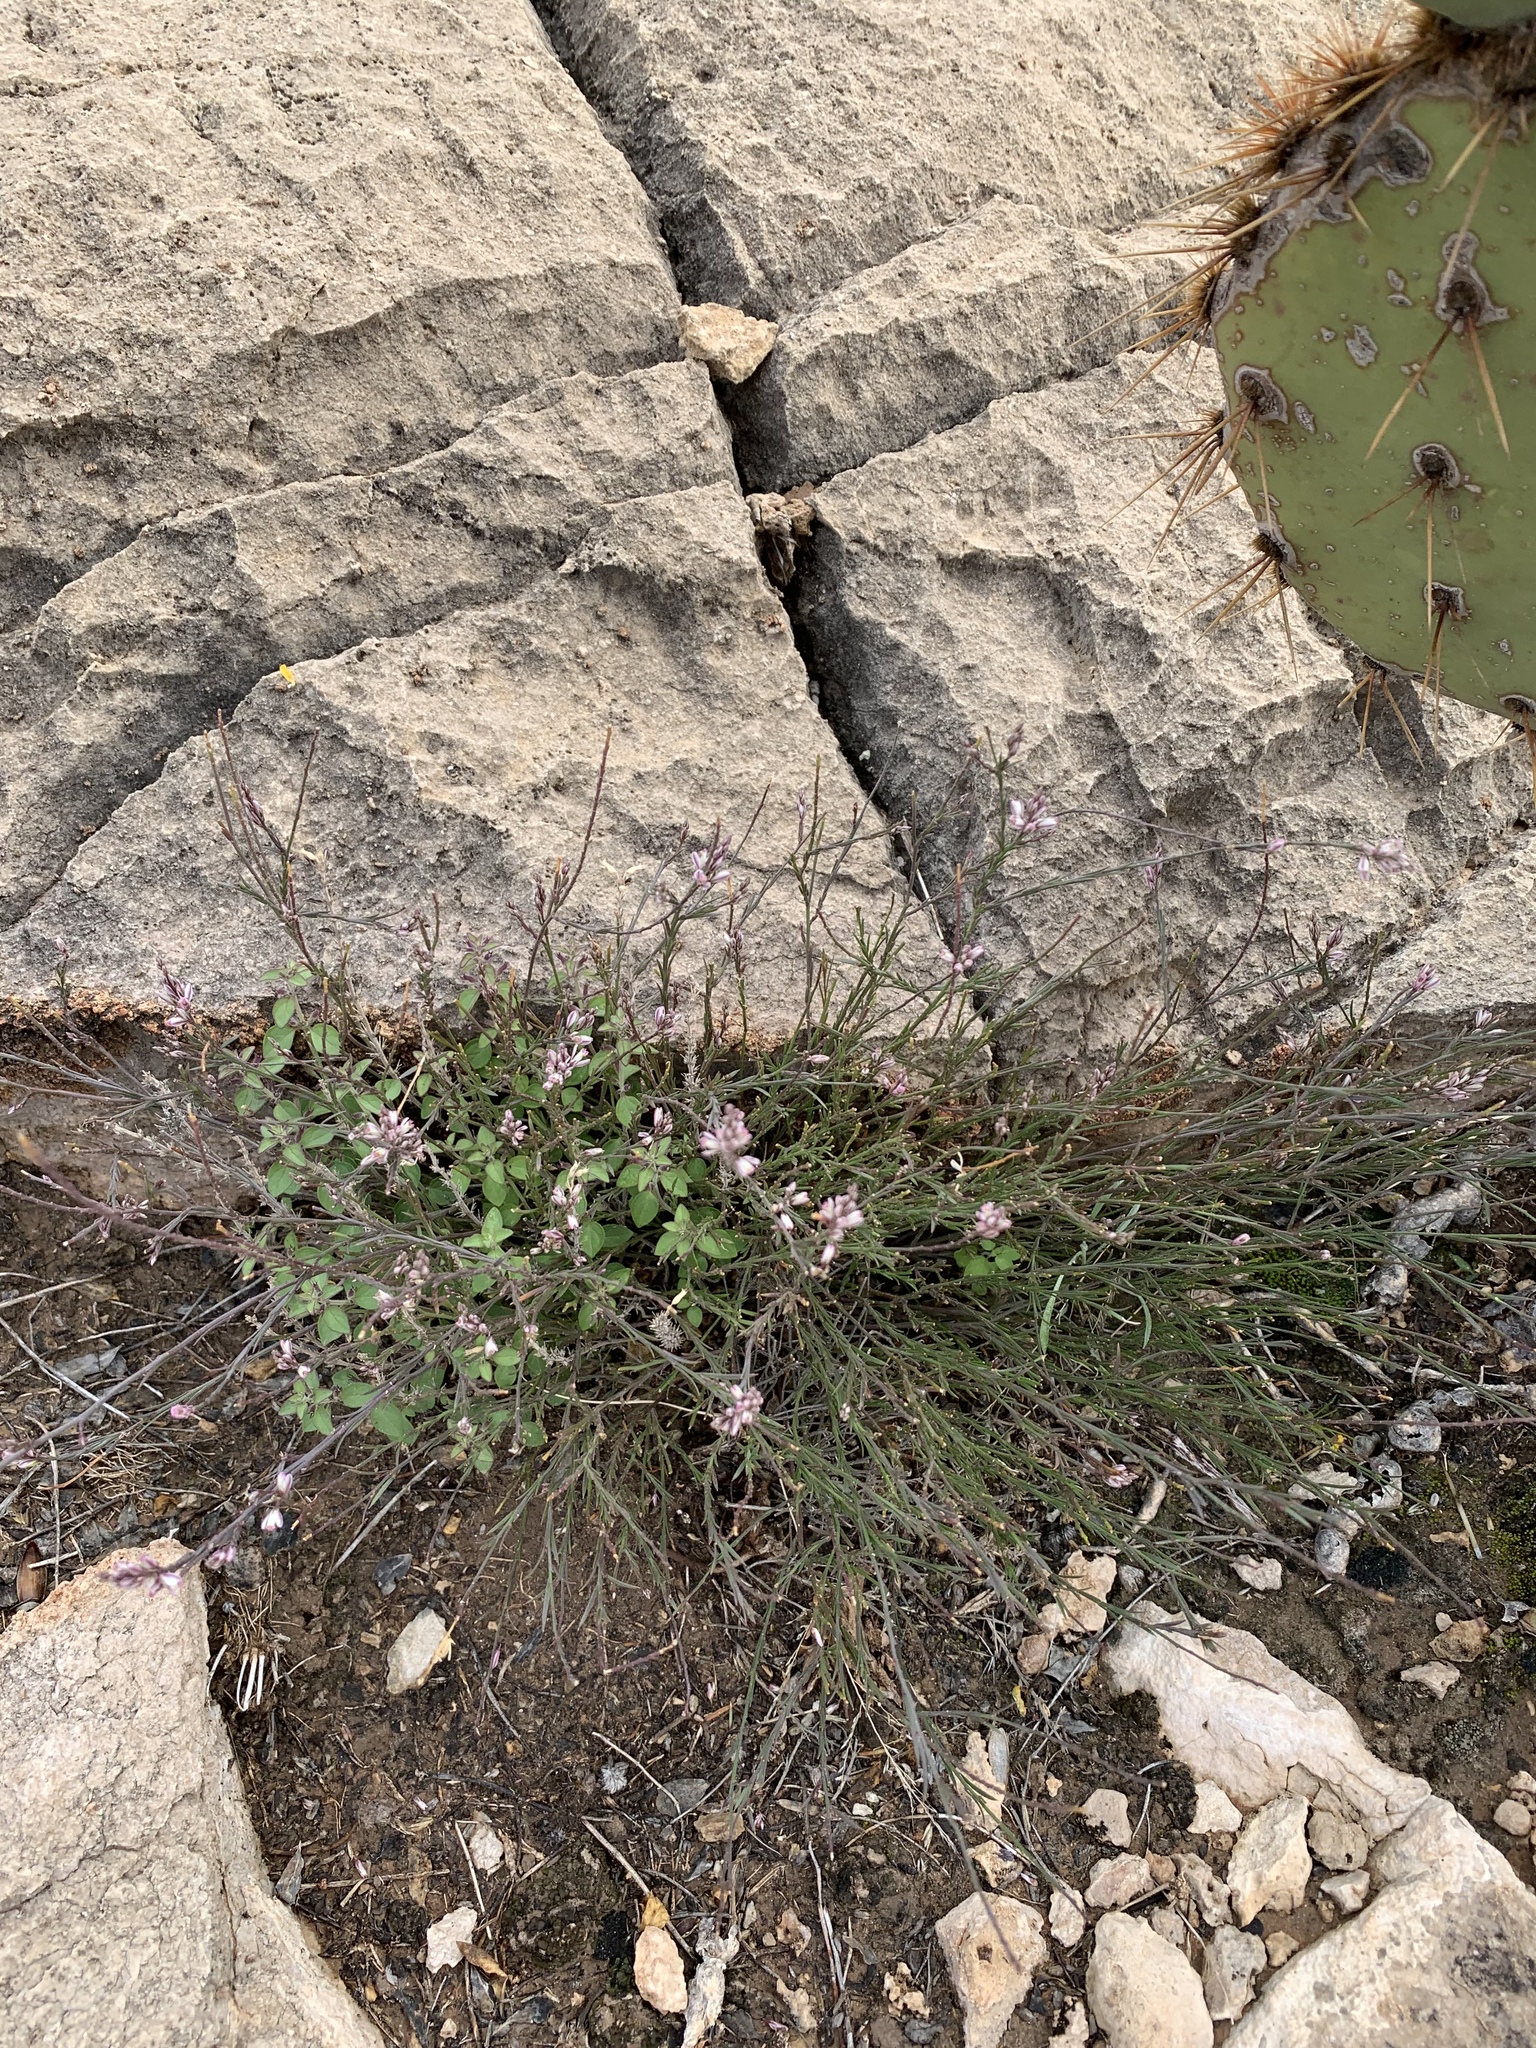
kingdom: Plantae
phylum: Tracheophyta
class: Magnoliopsida
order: Fabales
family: Polygalaceae
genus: Polygala
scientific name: Polygala scoparioides
